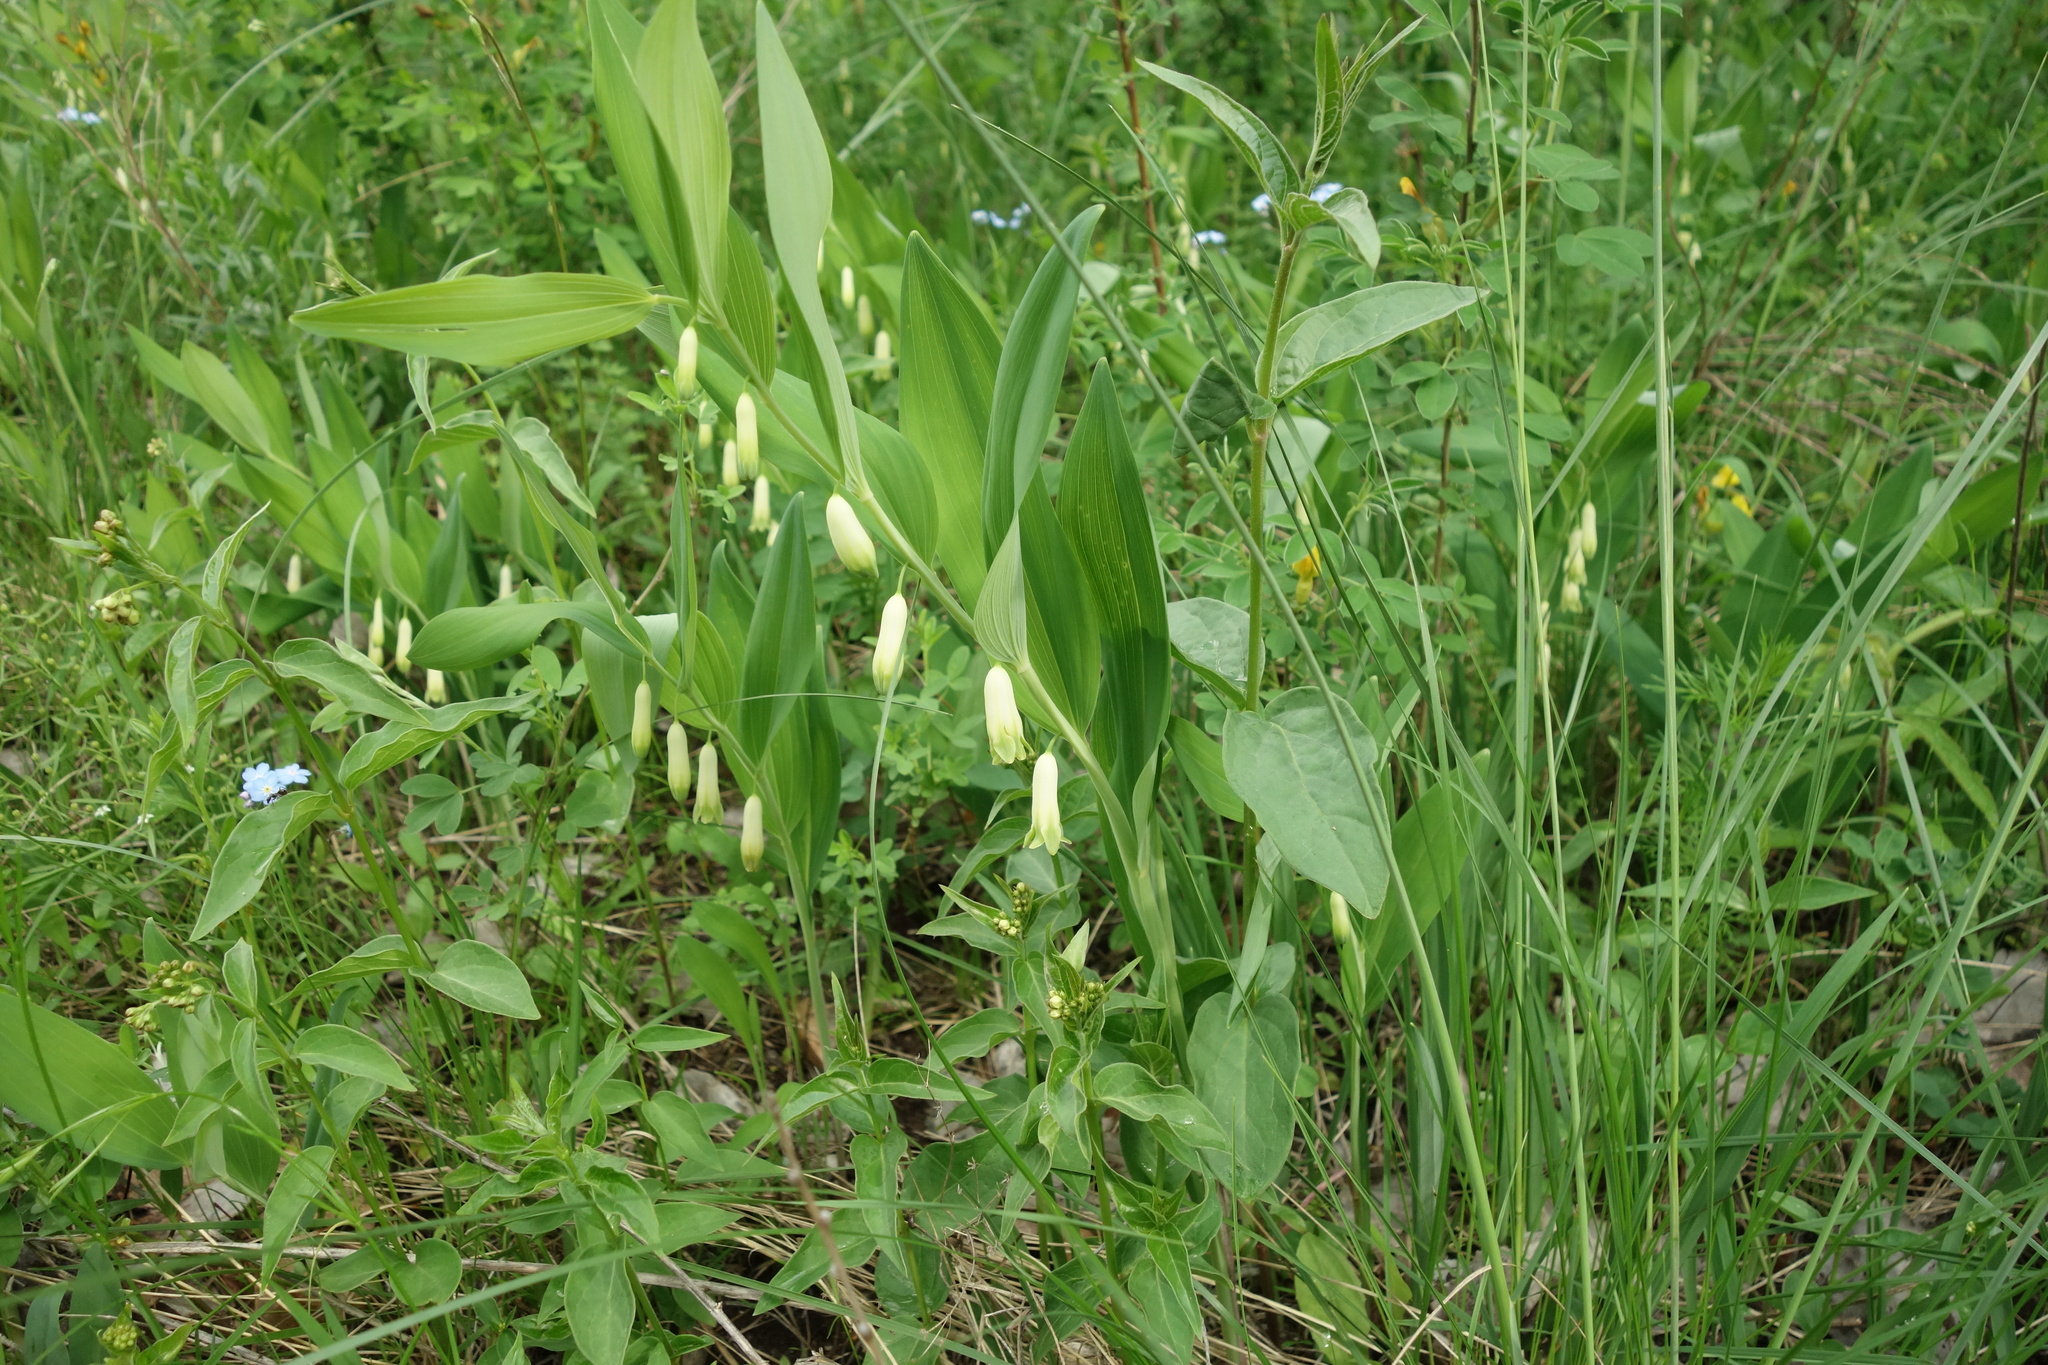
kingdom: Plantae
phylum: Tracheophyta
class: Liliopsida
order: Asparagales
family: Asparagaceae
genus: Polygonatum
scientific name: Polygonatum odoratum
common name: Angular solomon's-seal
